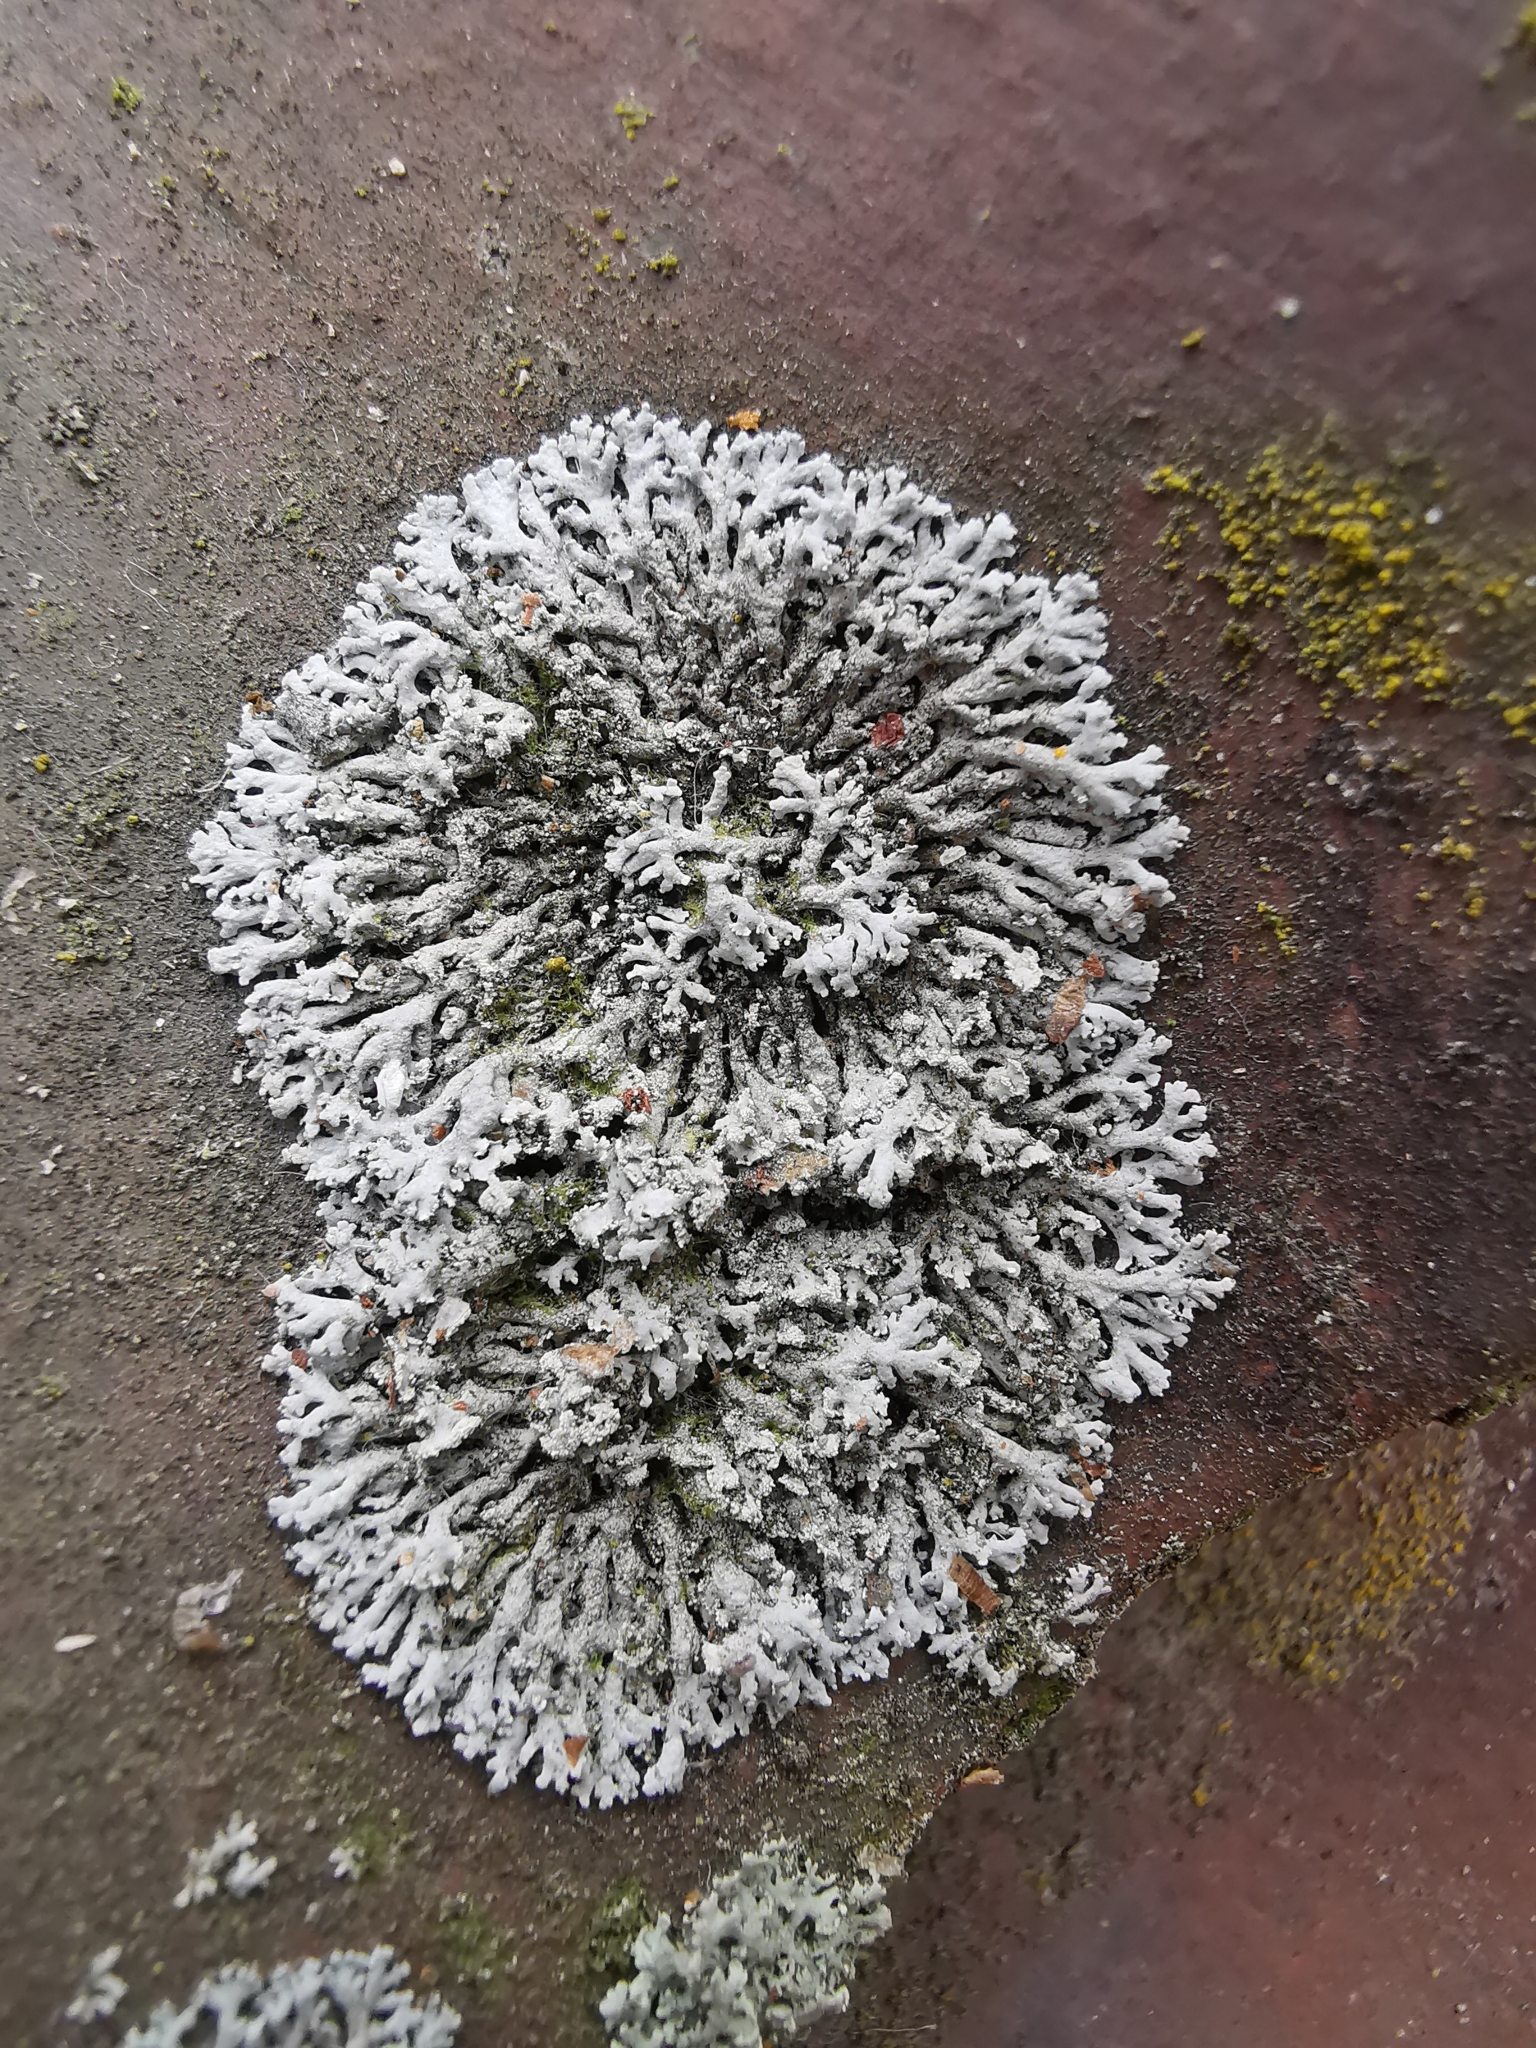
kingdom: Fungi
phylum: Ascomycota
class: Lecanoromycetes
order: Caliciales
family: Physciaceae
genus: Physcia
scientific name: Physcia caesia
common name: Blue-gray rosette lichen
